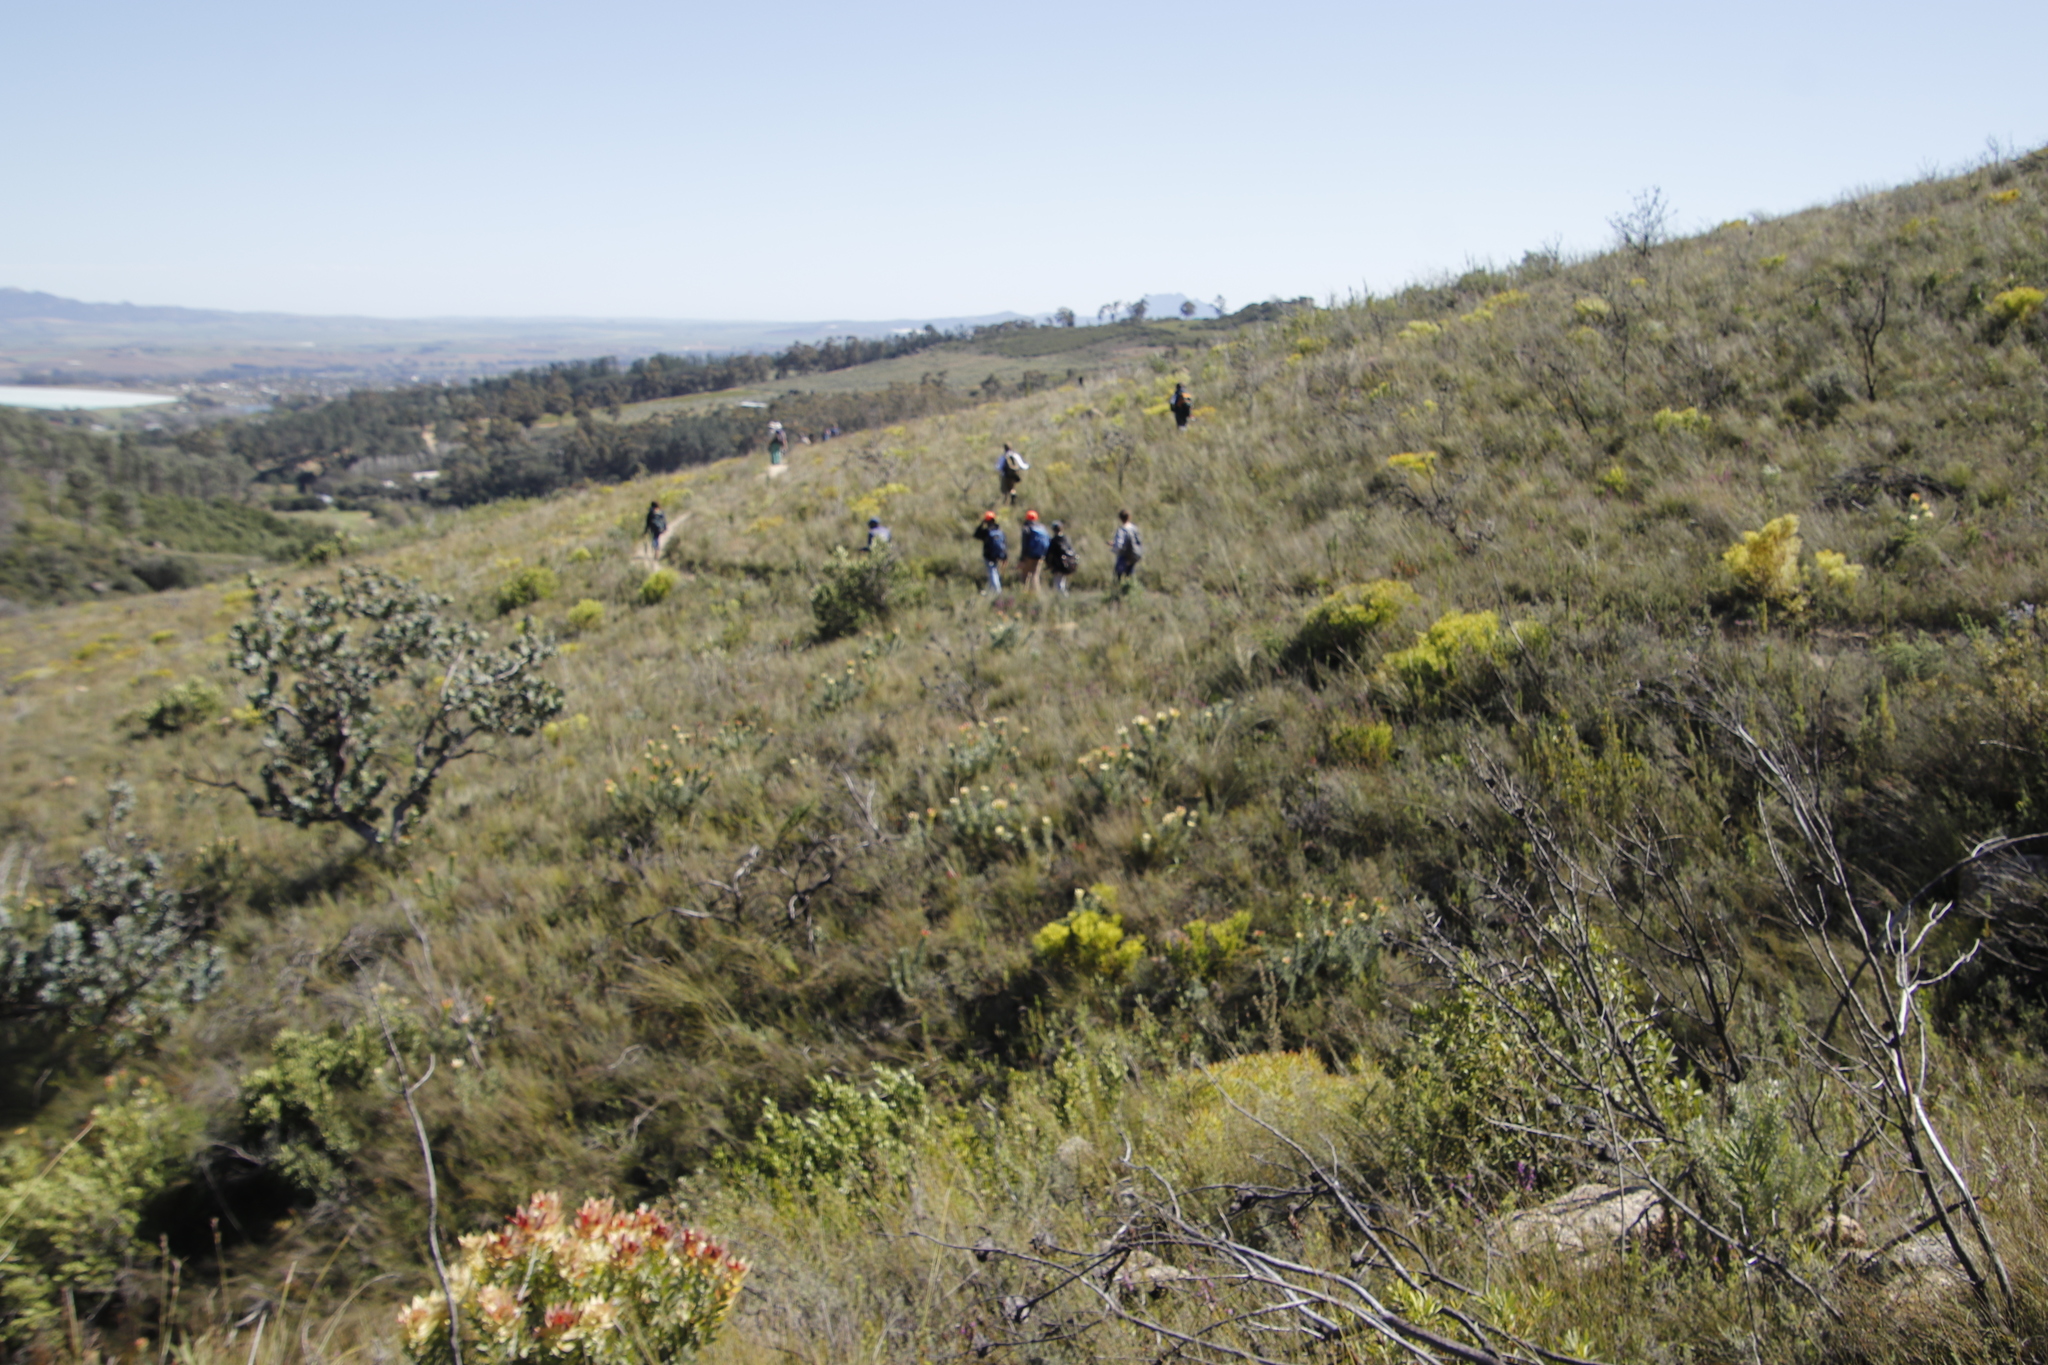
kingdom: Plantae
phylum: Tracheophyta
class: Magnoliopsida
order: Proteales
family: Proteaceae
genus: Leucadendron
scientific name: Leucadendron salignum
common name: Common sunshine conebush
